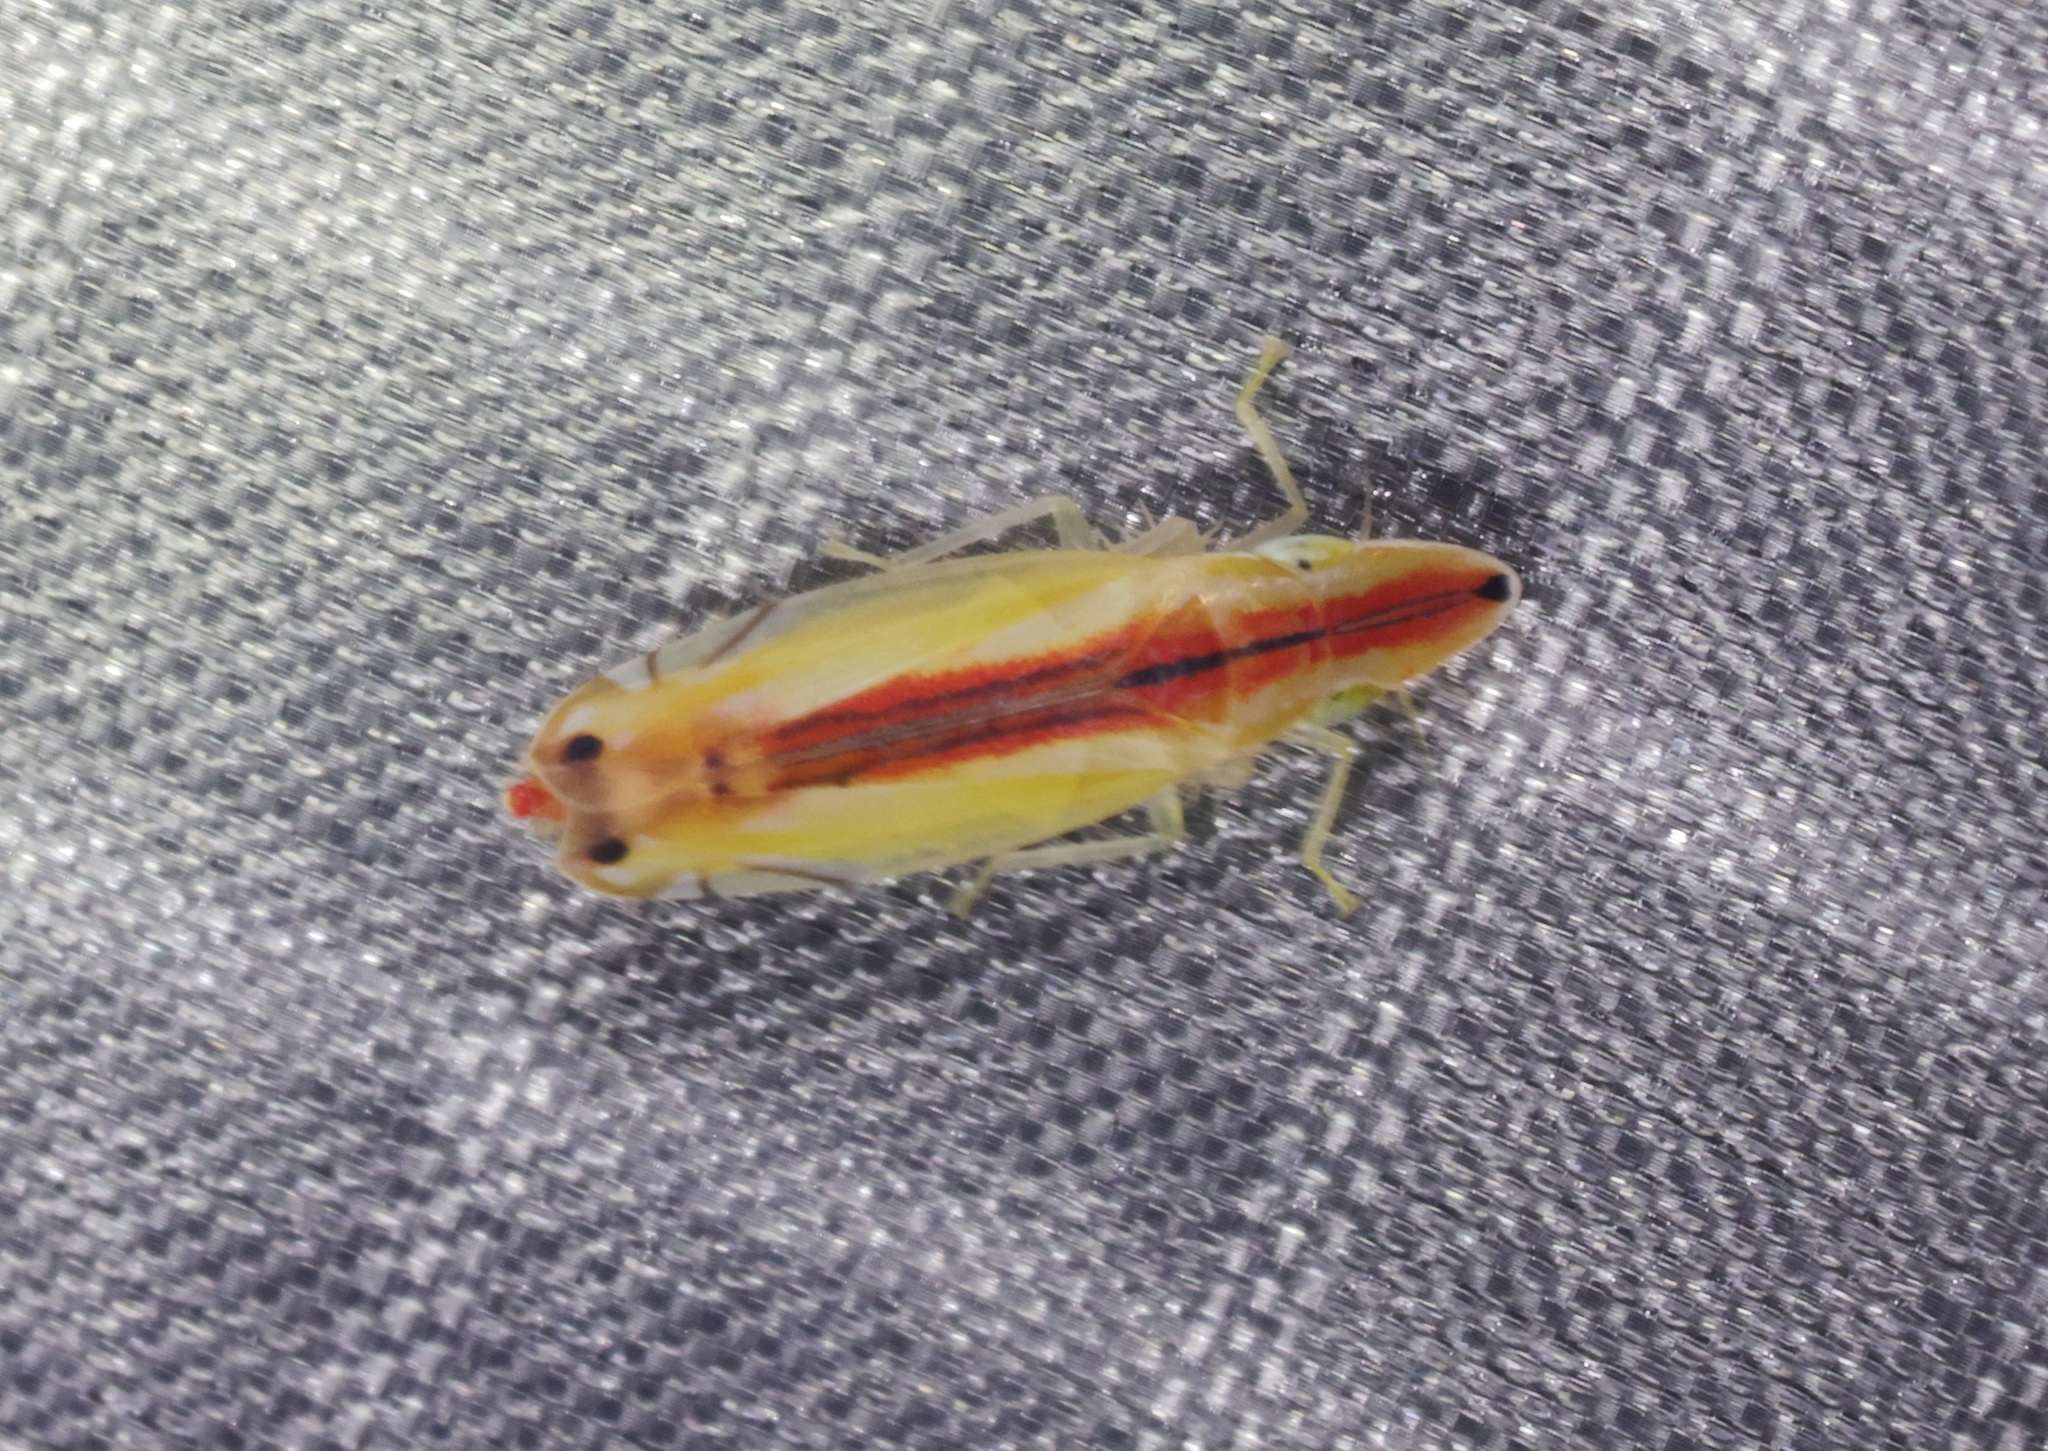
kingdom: Animalia
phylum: Arthropoda
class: Insecta
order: Hemiptera
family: Cicadellidae
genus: Sophonia
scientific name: Sophonia orientalis
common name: Two-spotted leafhopper
